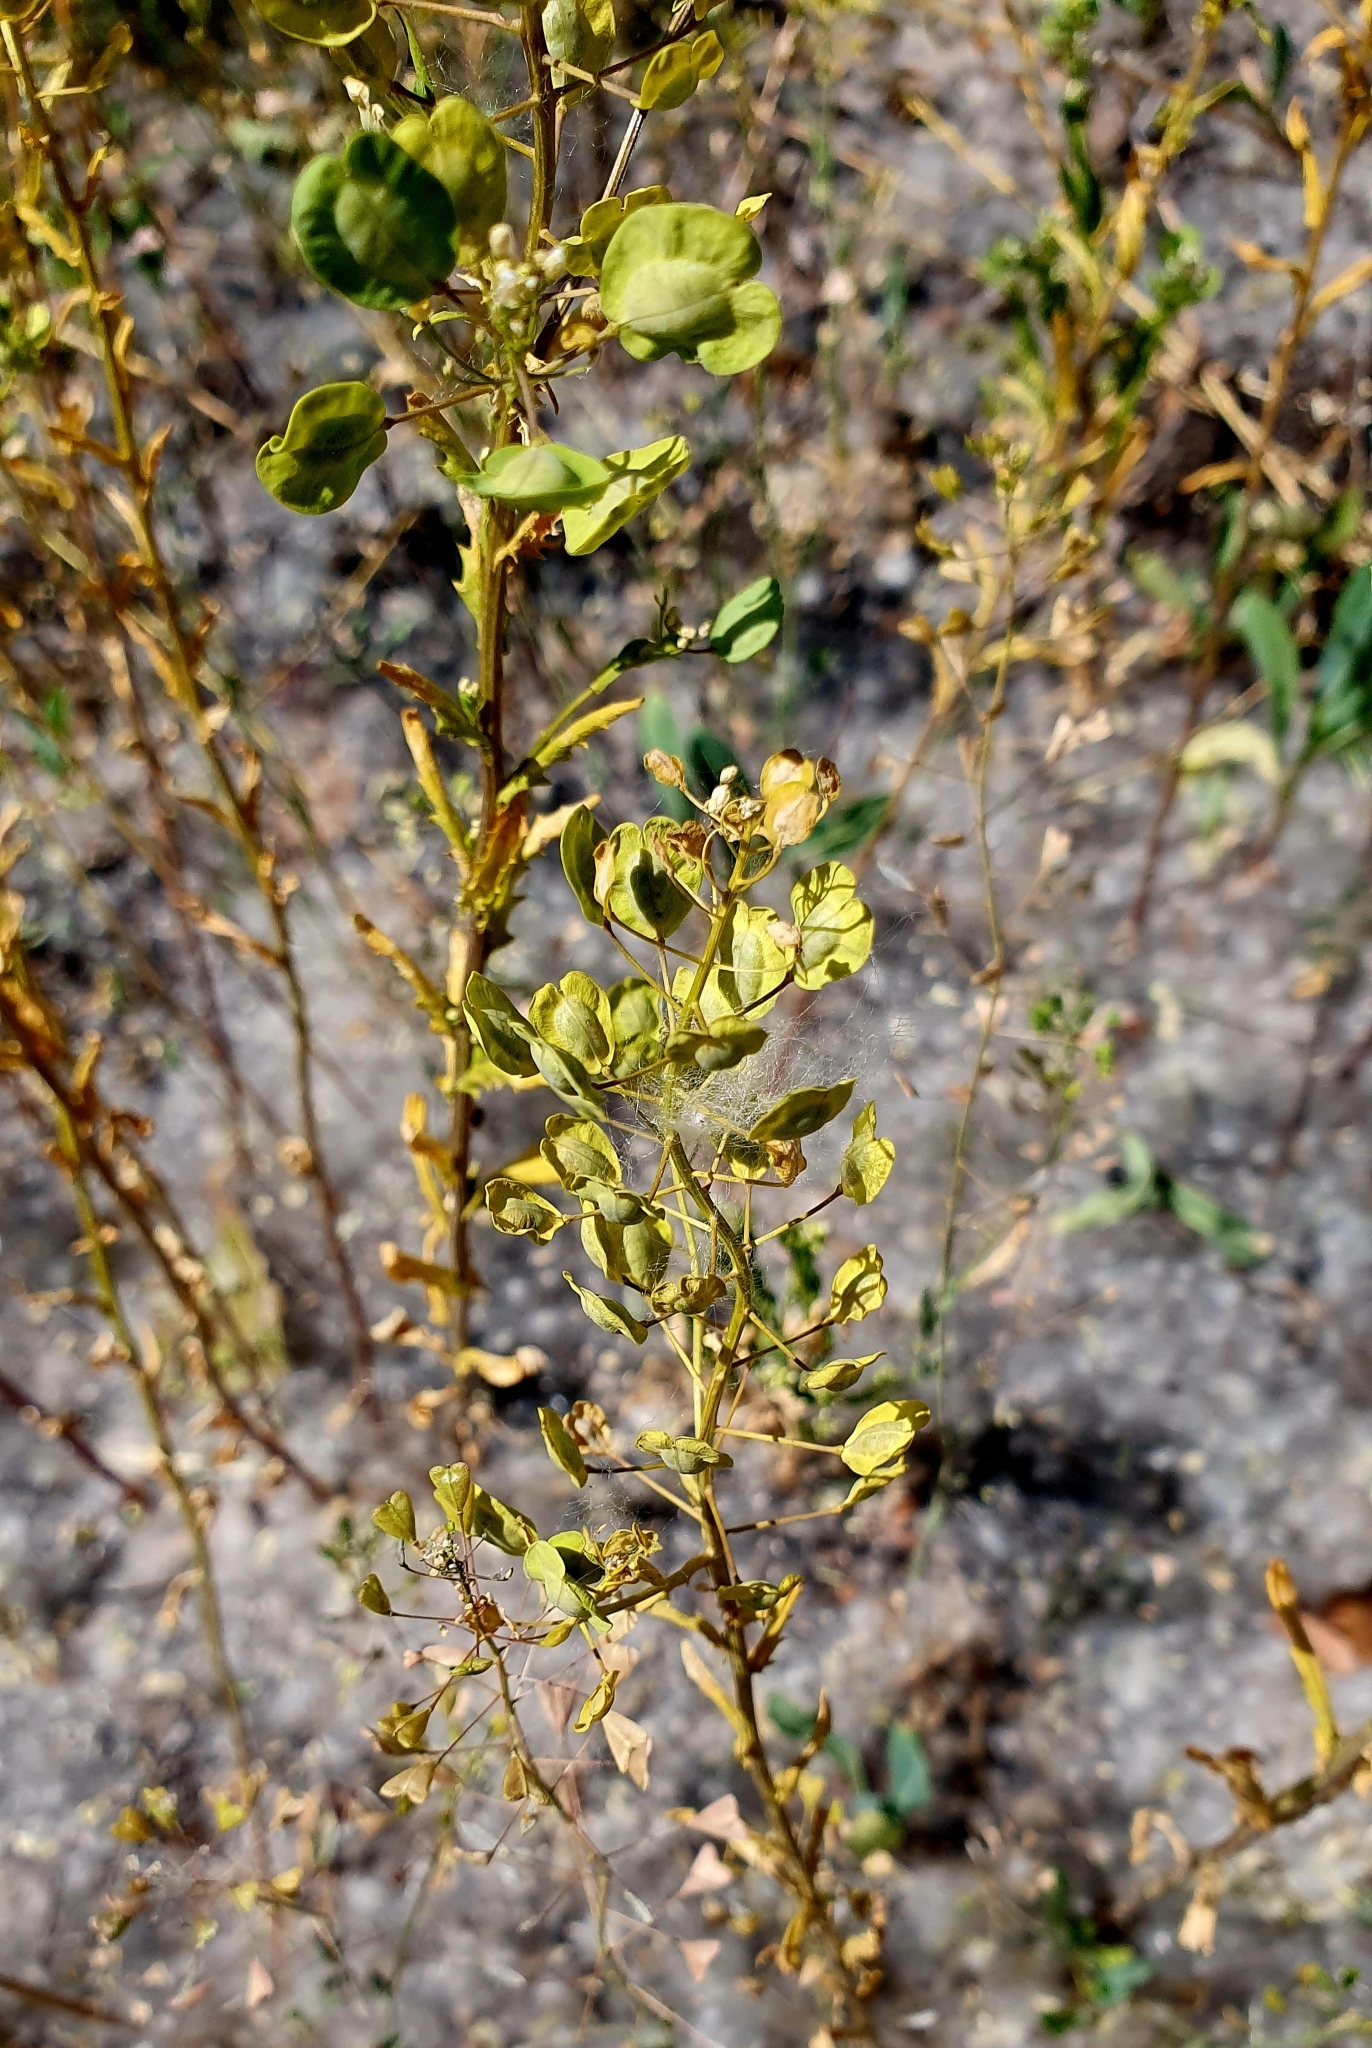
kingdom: Plantae
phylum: Tracheophyta
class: Magnoliopsida
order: Brassicales
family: Brassicaceae
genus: Thlaspi
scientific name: Thlaspi arvense
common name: Field pennycress
